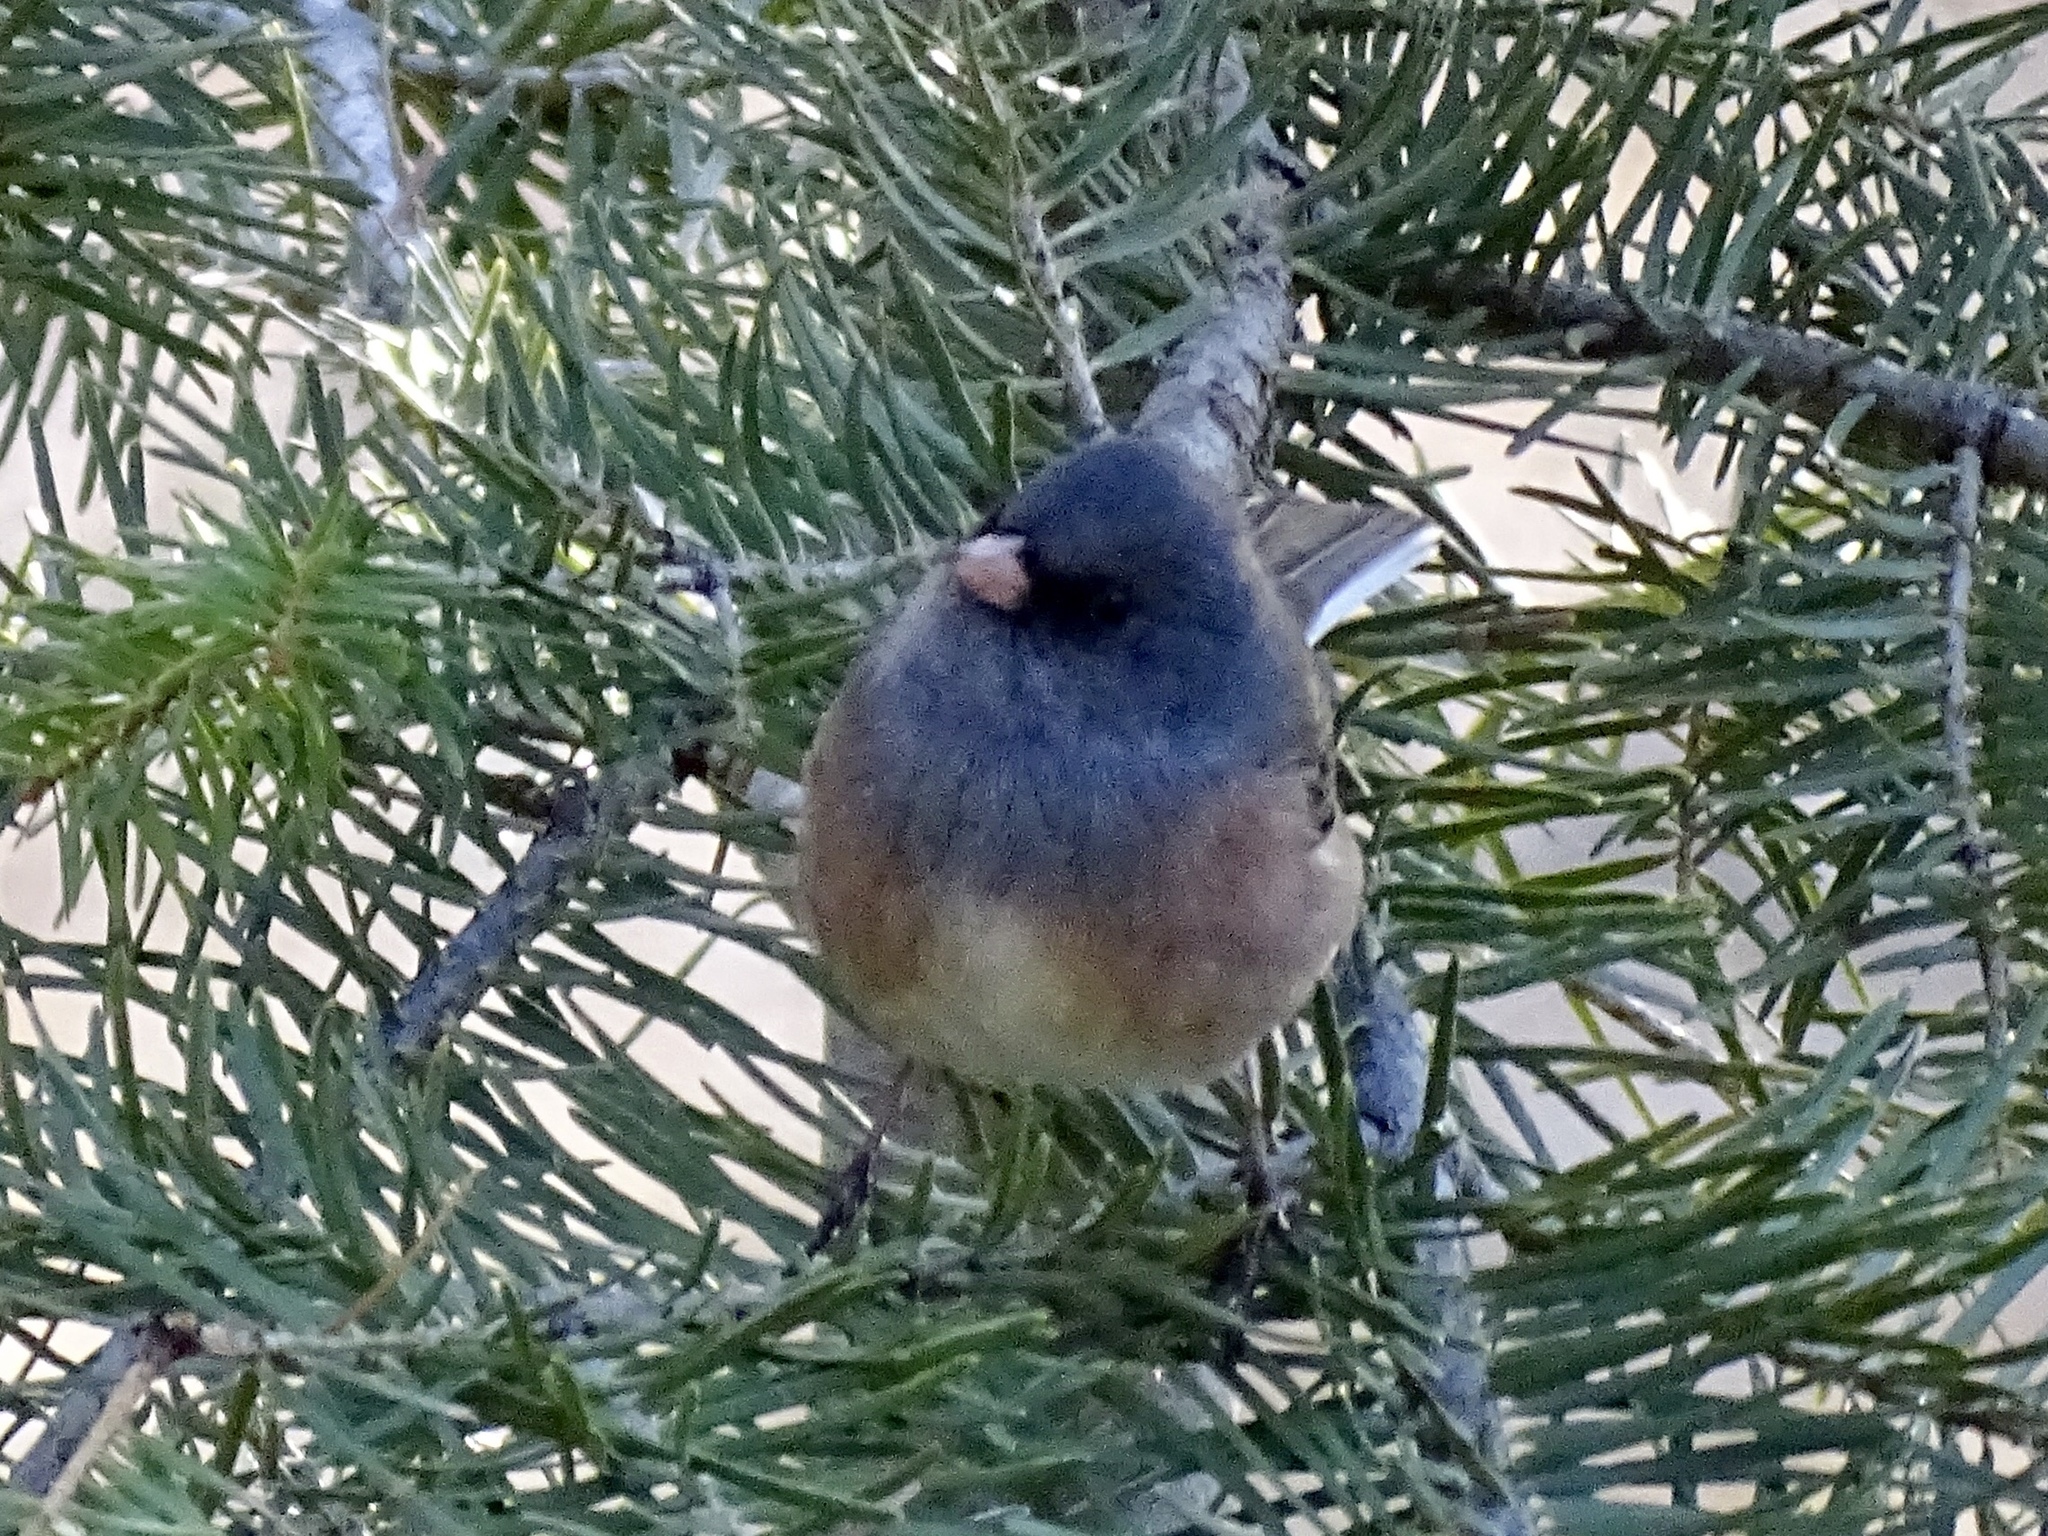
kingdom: Animalia
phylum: Chordata
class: Aves
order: Passeriformes
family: Passerellidae
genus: Junco
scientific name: Junco hyemalis
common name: Dark-eyed junco
